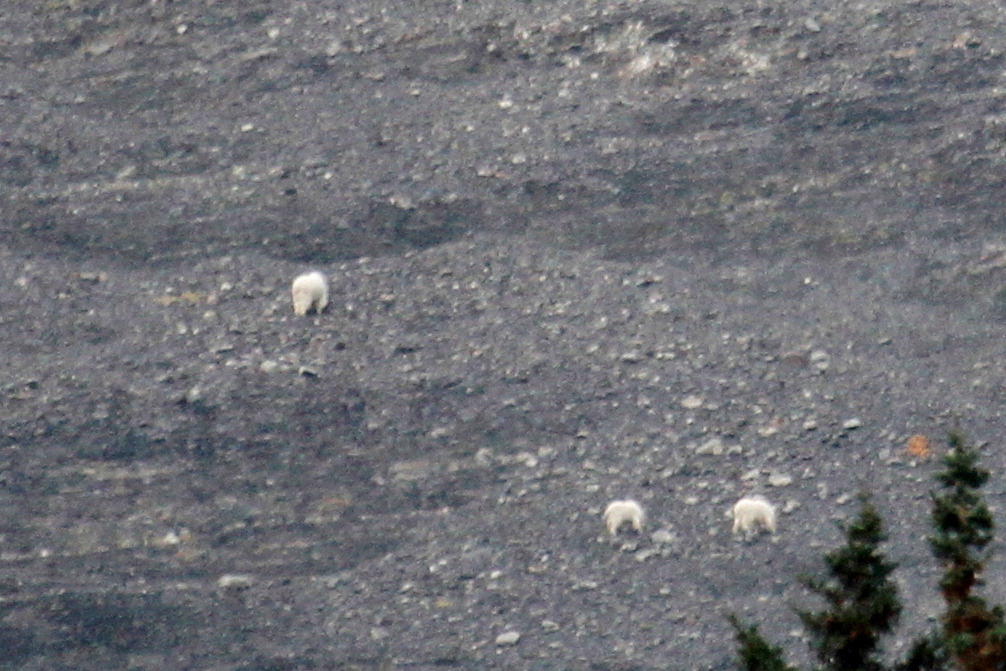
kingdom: Animalia
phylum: Chordata
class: Mammalia
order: Artiodactyla
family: Bovidae
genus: Oreamnos
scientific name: Oreamnos americanus
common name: Mountain goat
